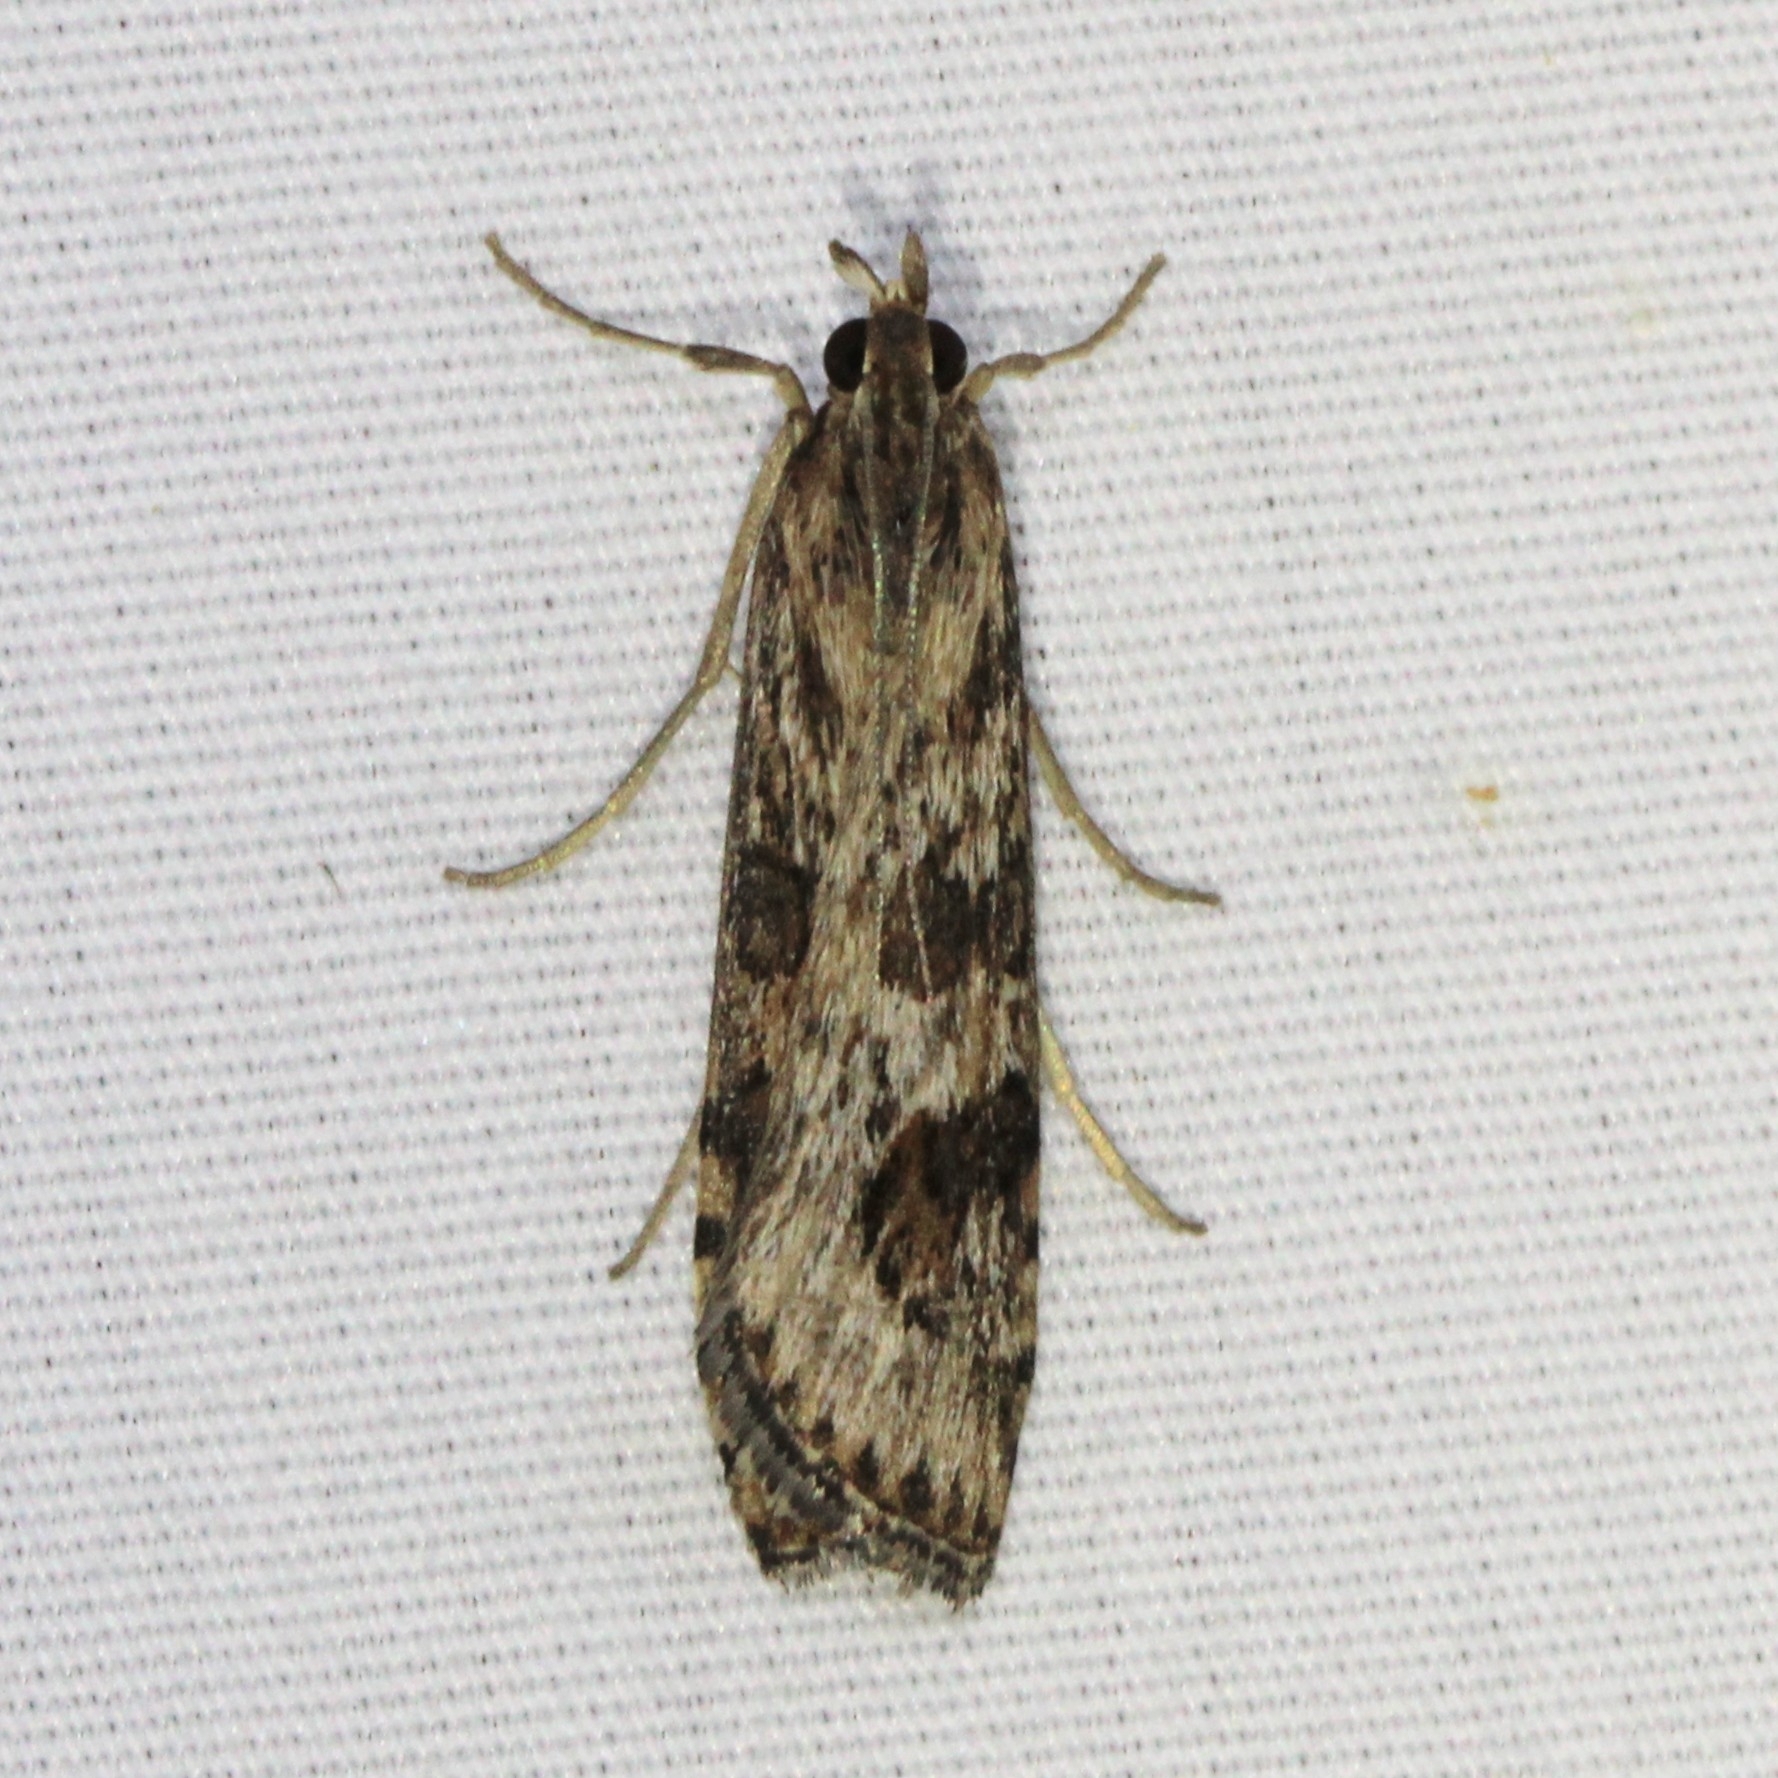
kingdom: Animalia
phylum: Arthropoda
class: Insecta
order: Lepidoptera
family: Crambidae
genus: Nomophila
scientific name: Nomophila nearctica
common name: American rush veneer
